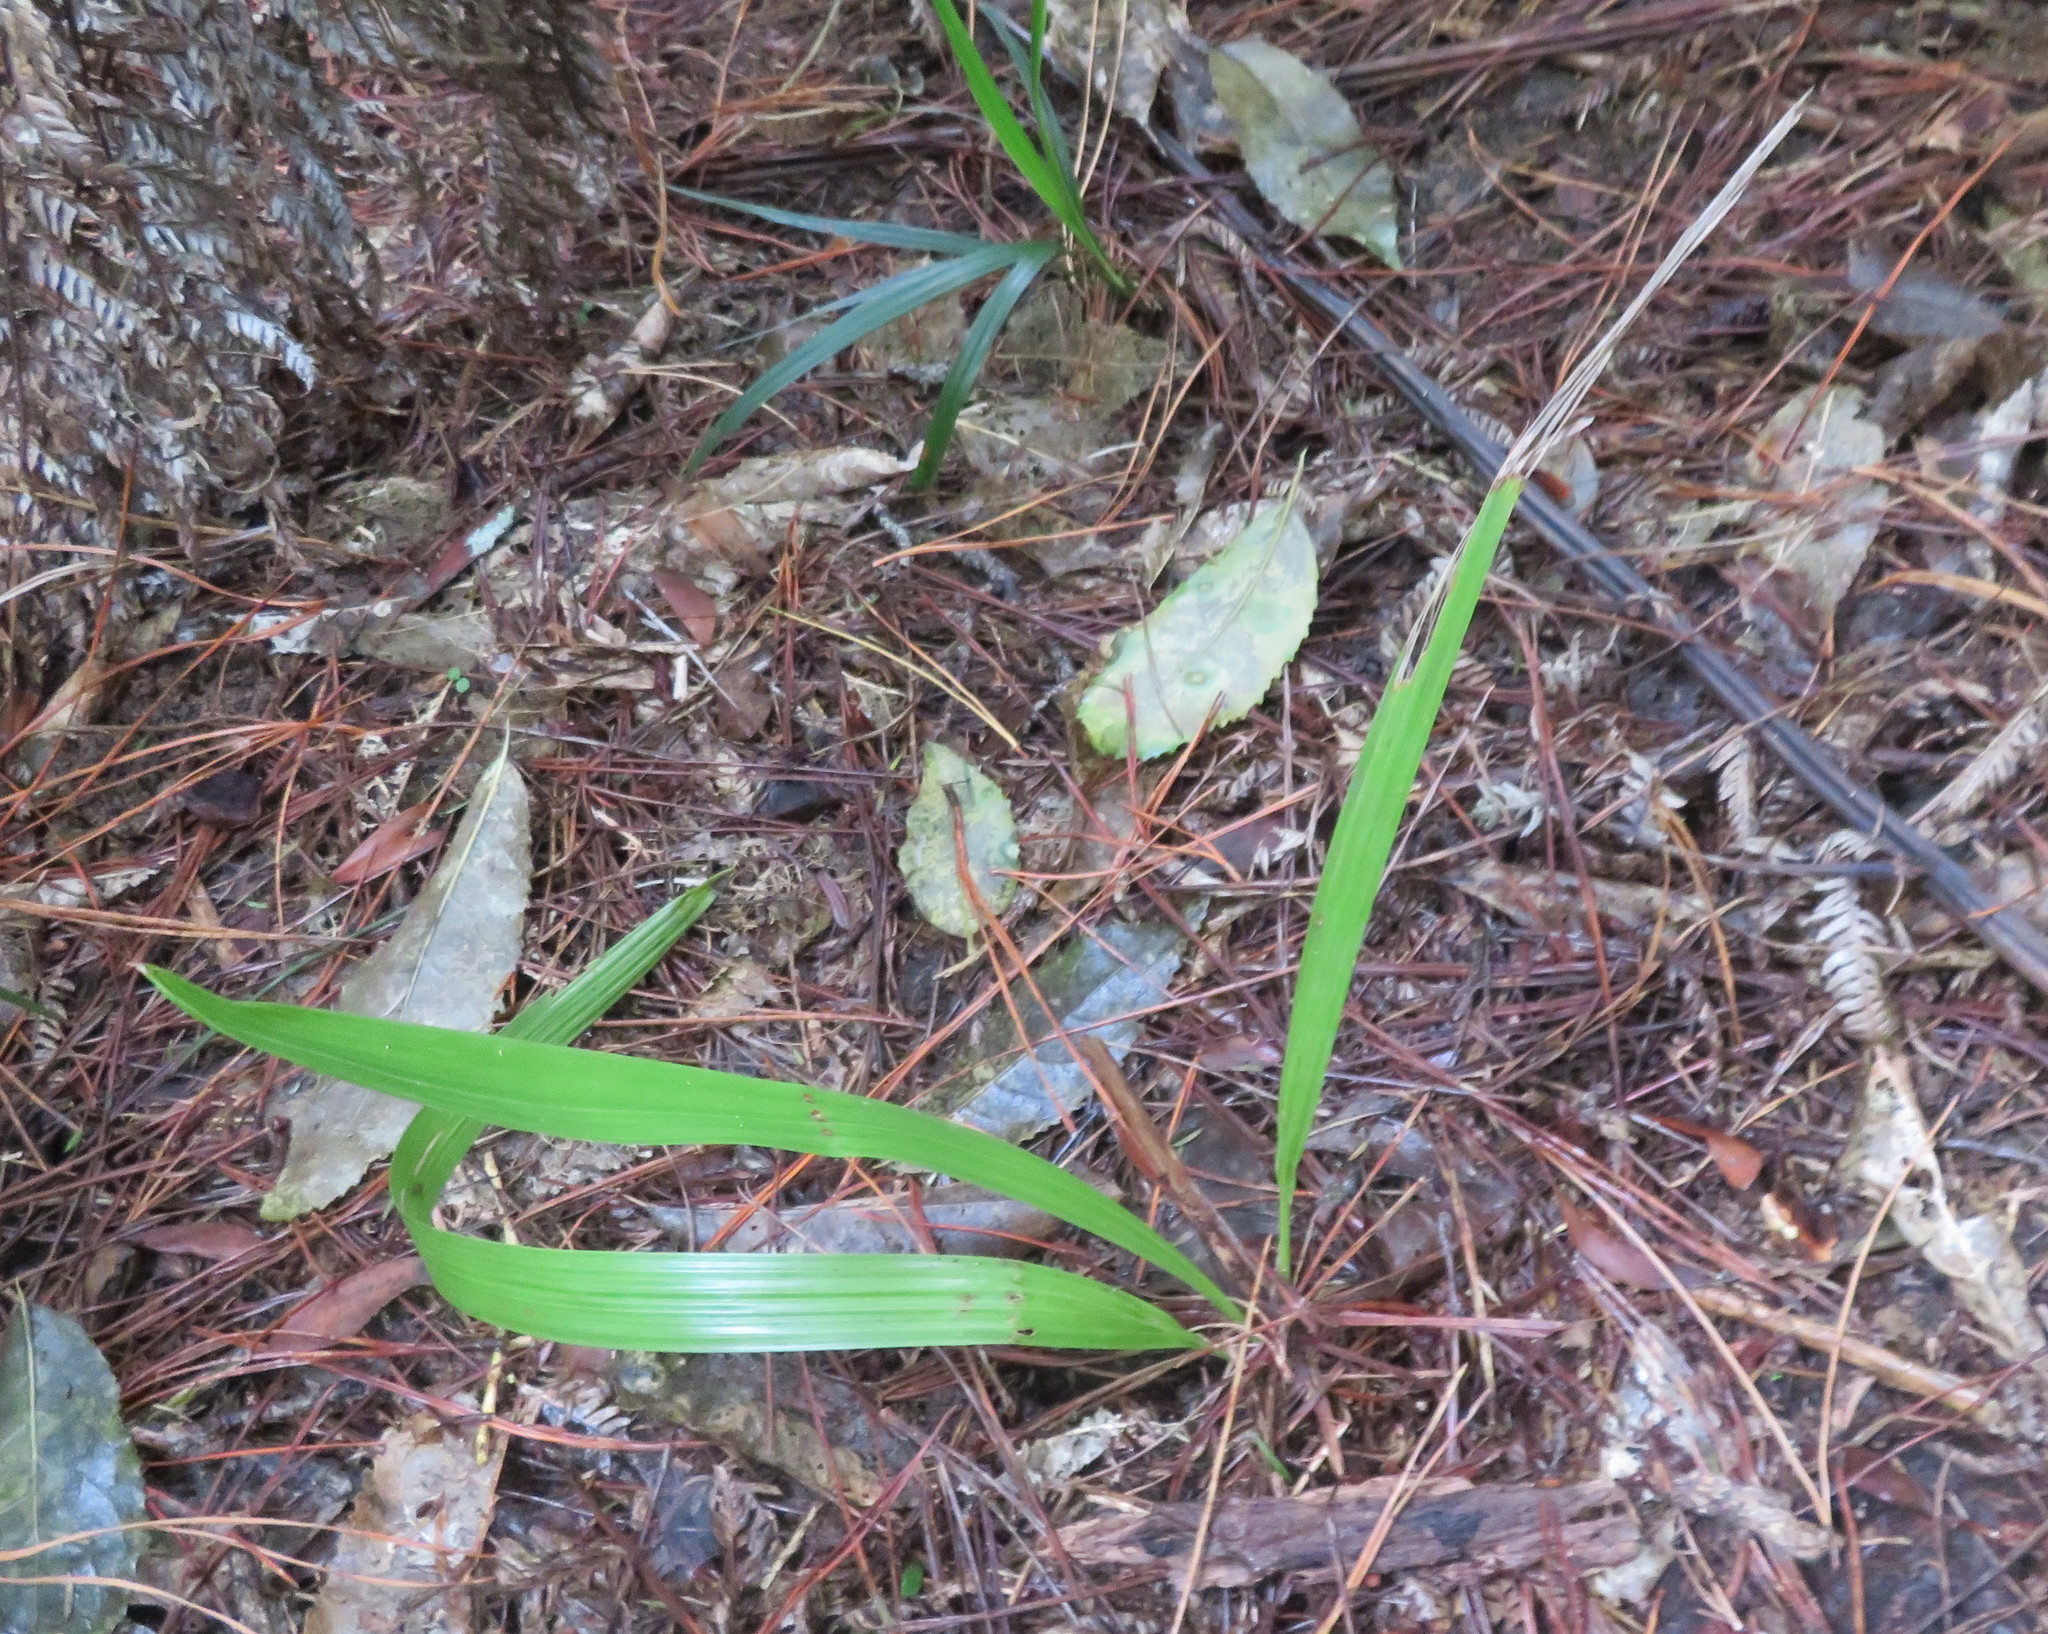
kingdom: Plantae
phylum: Tracheophyta
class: Liliopsida
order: Arecales
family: Arecaceae
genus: Phoenix
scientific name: Phoenix canariensis
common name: Canary island date palm
